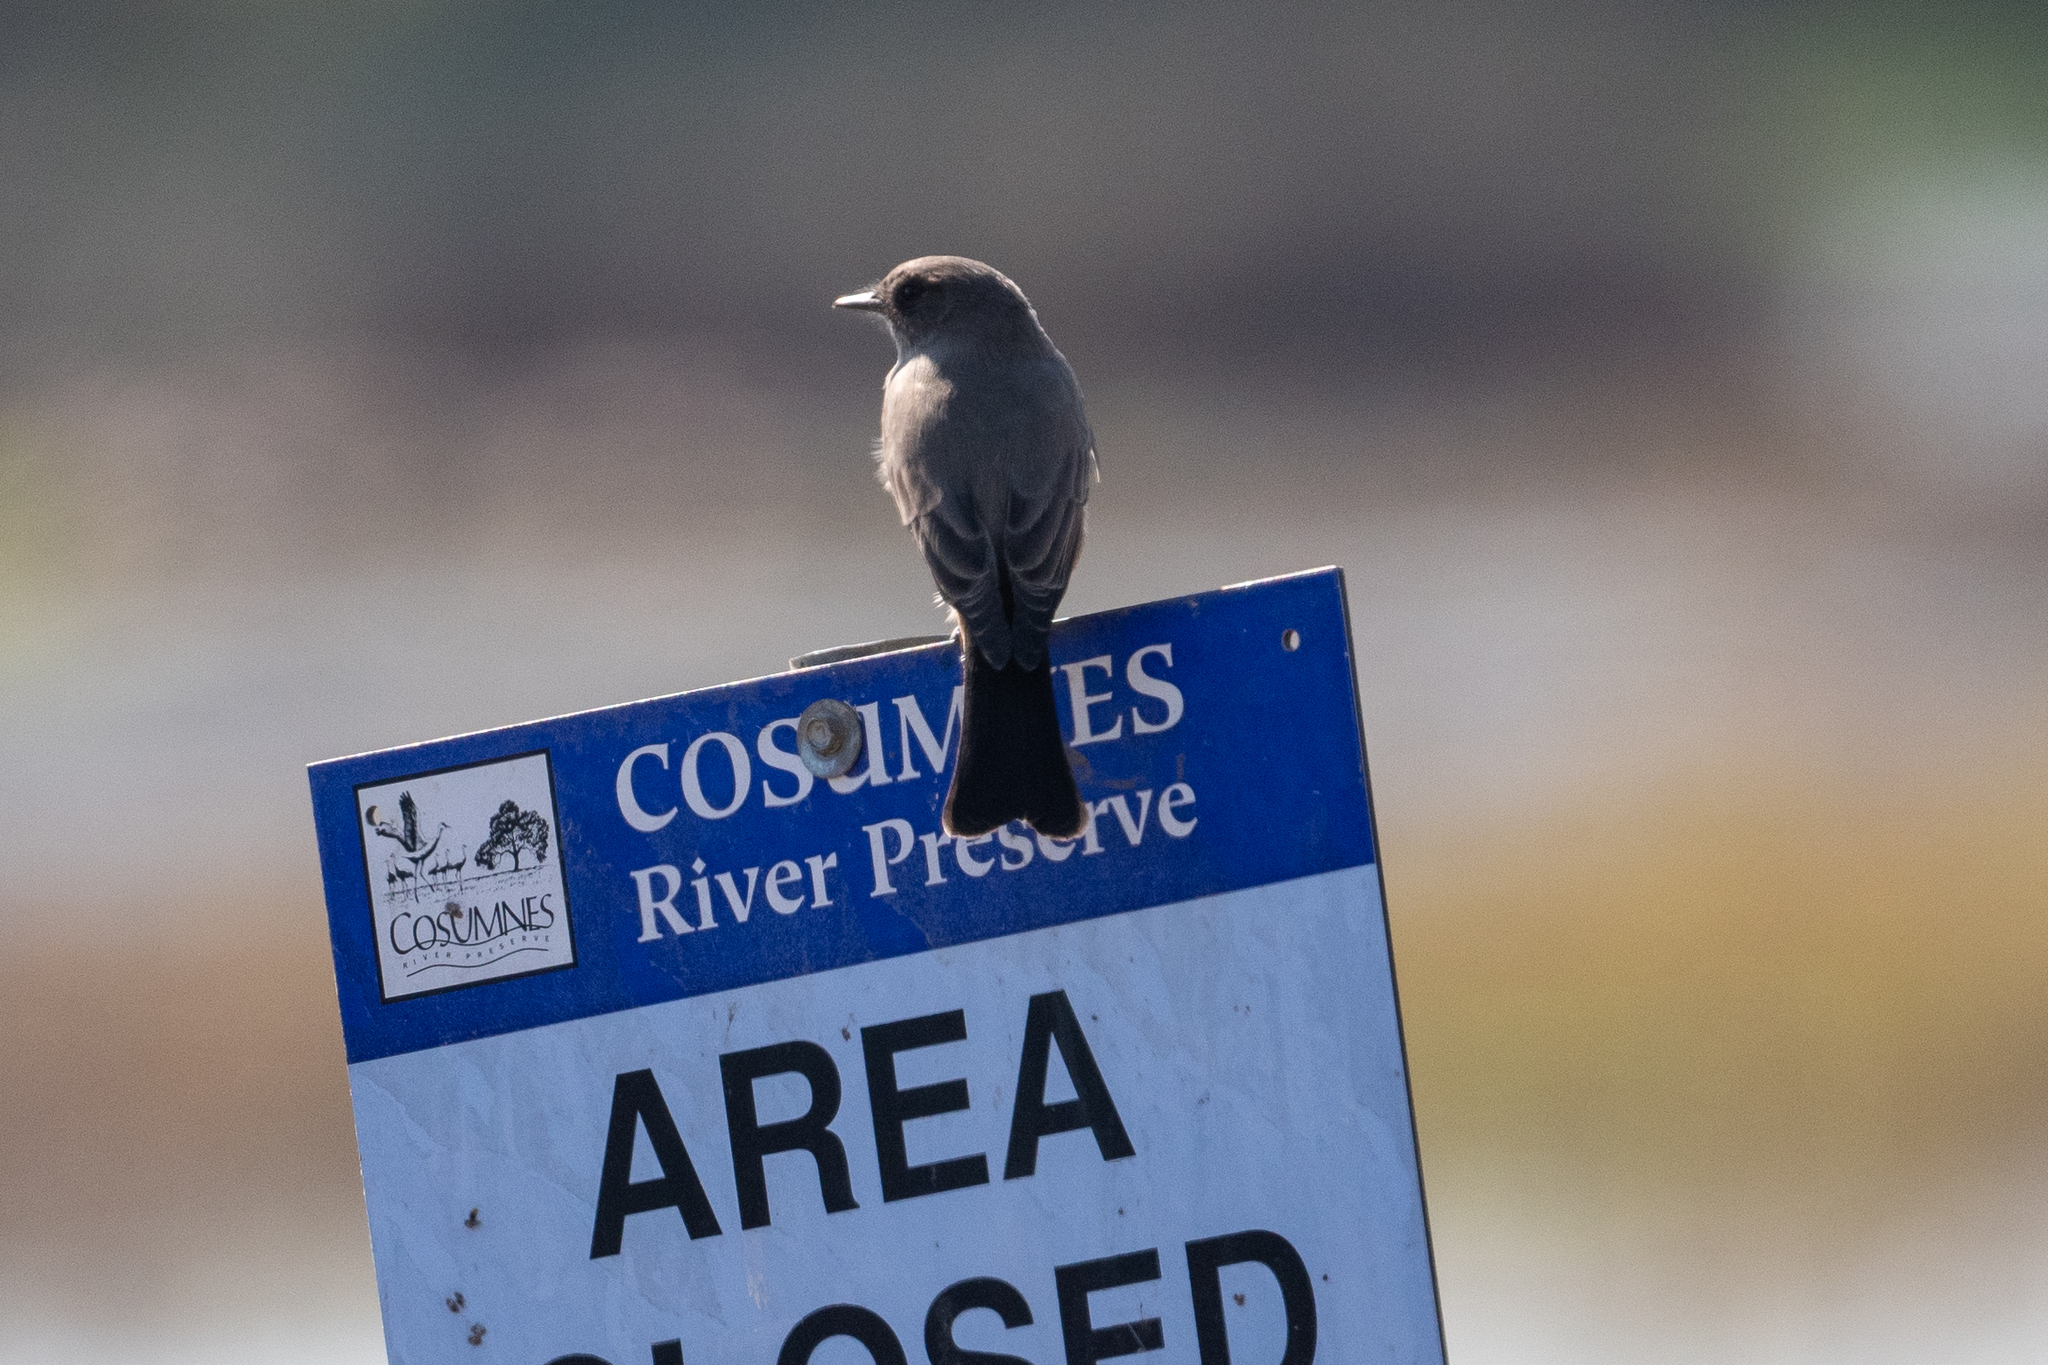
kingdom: Animalia
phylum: Chordata
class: Aves
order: Passeriformes
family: Tyrannidae
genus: Sayornis
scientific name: Sayornis saya
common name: Say's phoebe
